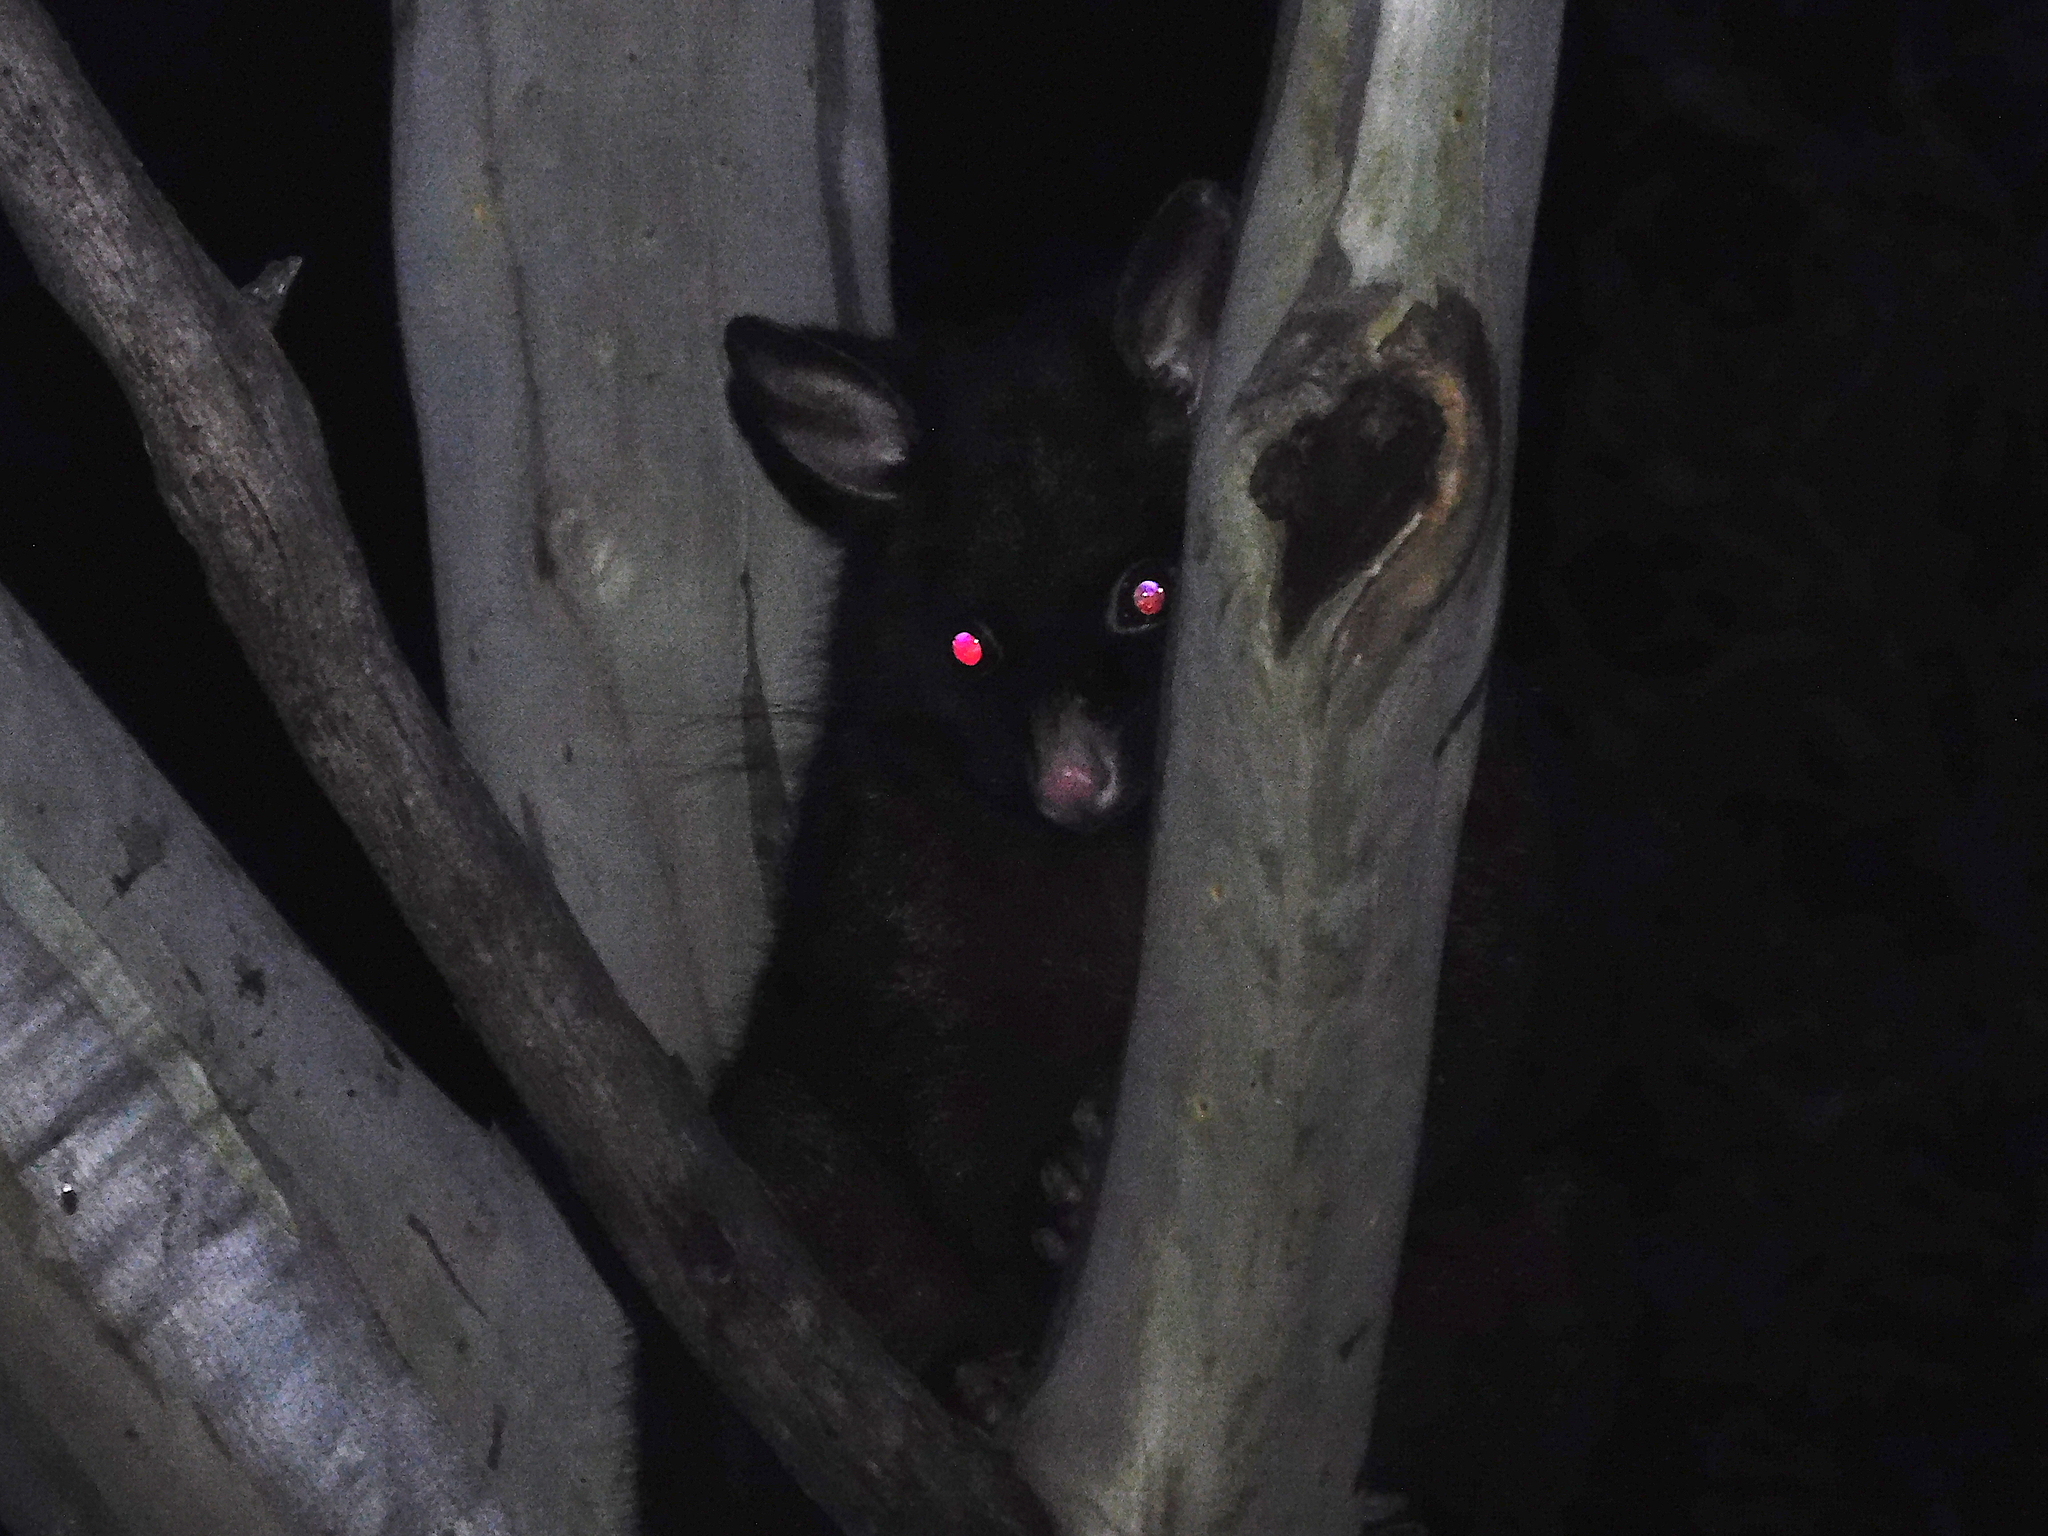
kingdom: Animalia
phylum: Chordata
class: Mammalia
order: Diprotodontia
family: Phalangeridae
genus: Trichosurus
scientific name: Trichosurus vulpecula
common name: Common brushtail
